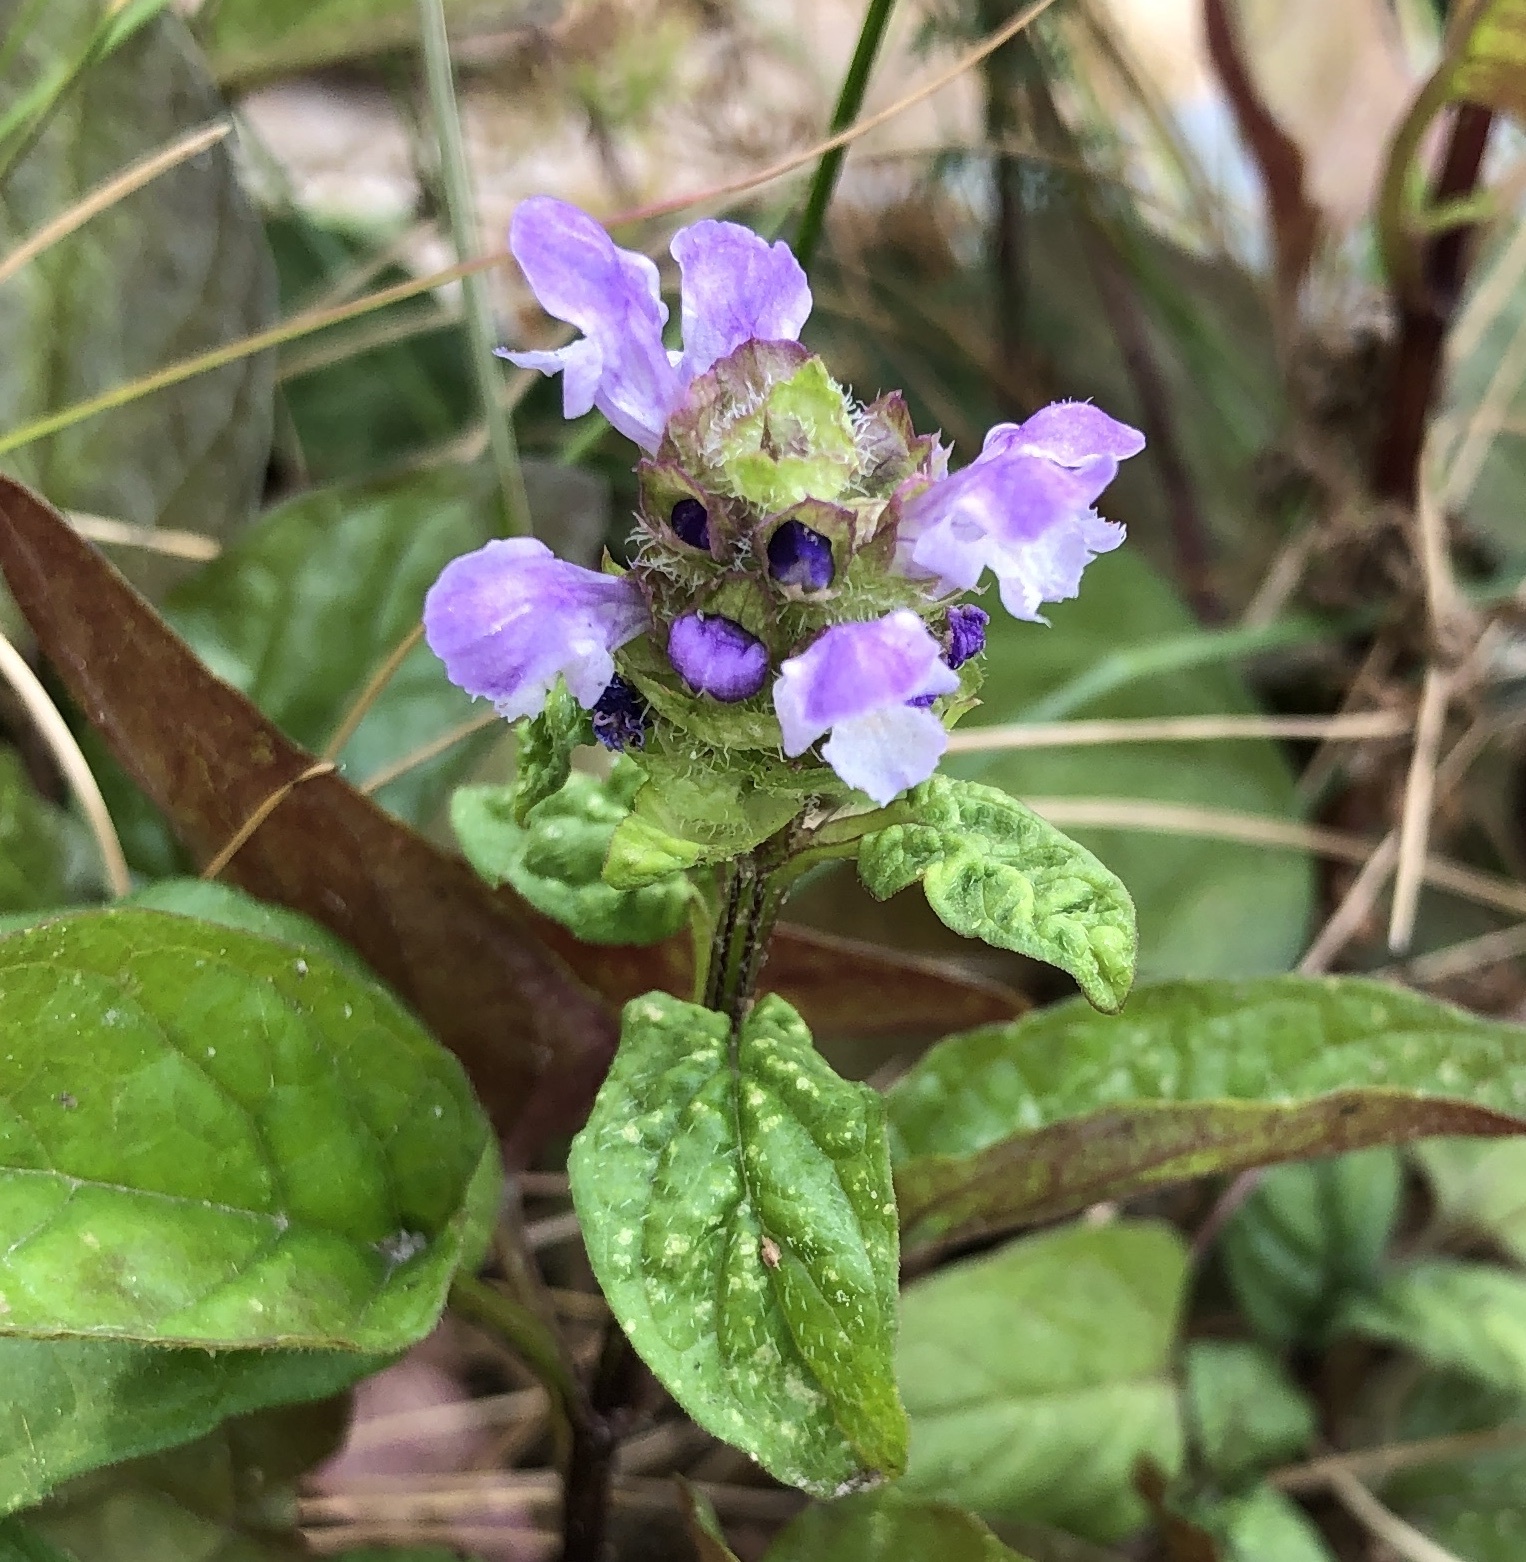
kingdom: Plantae
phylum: Tracheophyta
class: Magnoliopsida
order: Lamiales
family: Lamiaceae
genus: Prunella
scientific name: Prunella vulgaris
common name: Heal-all
